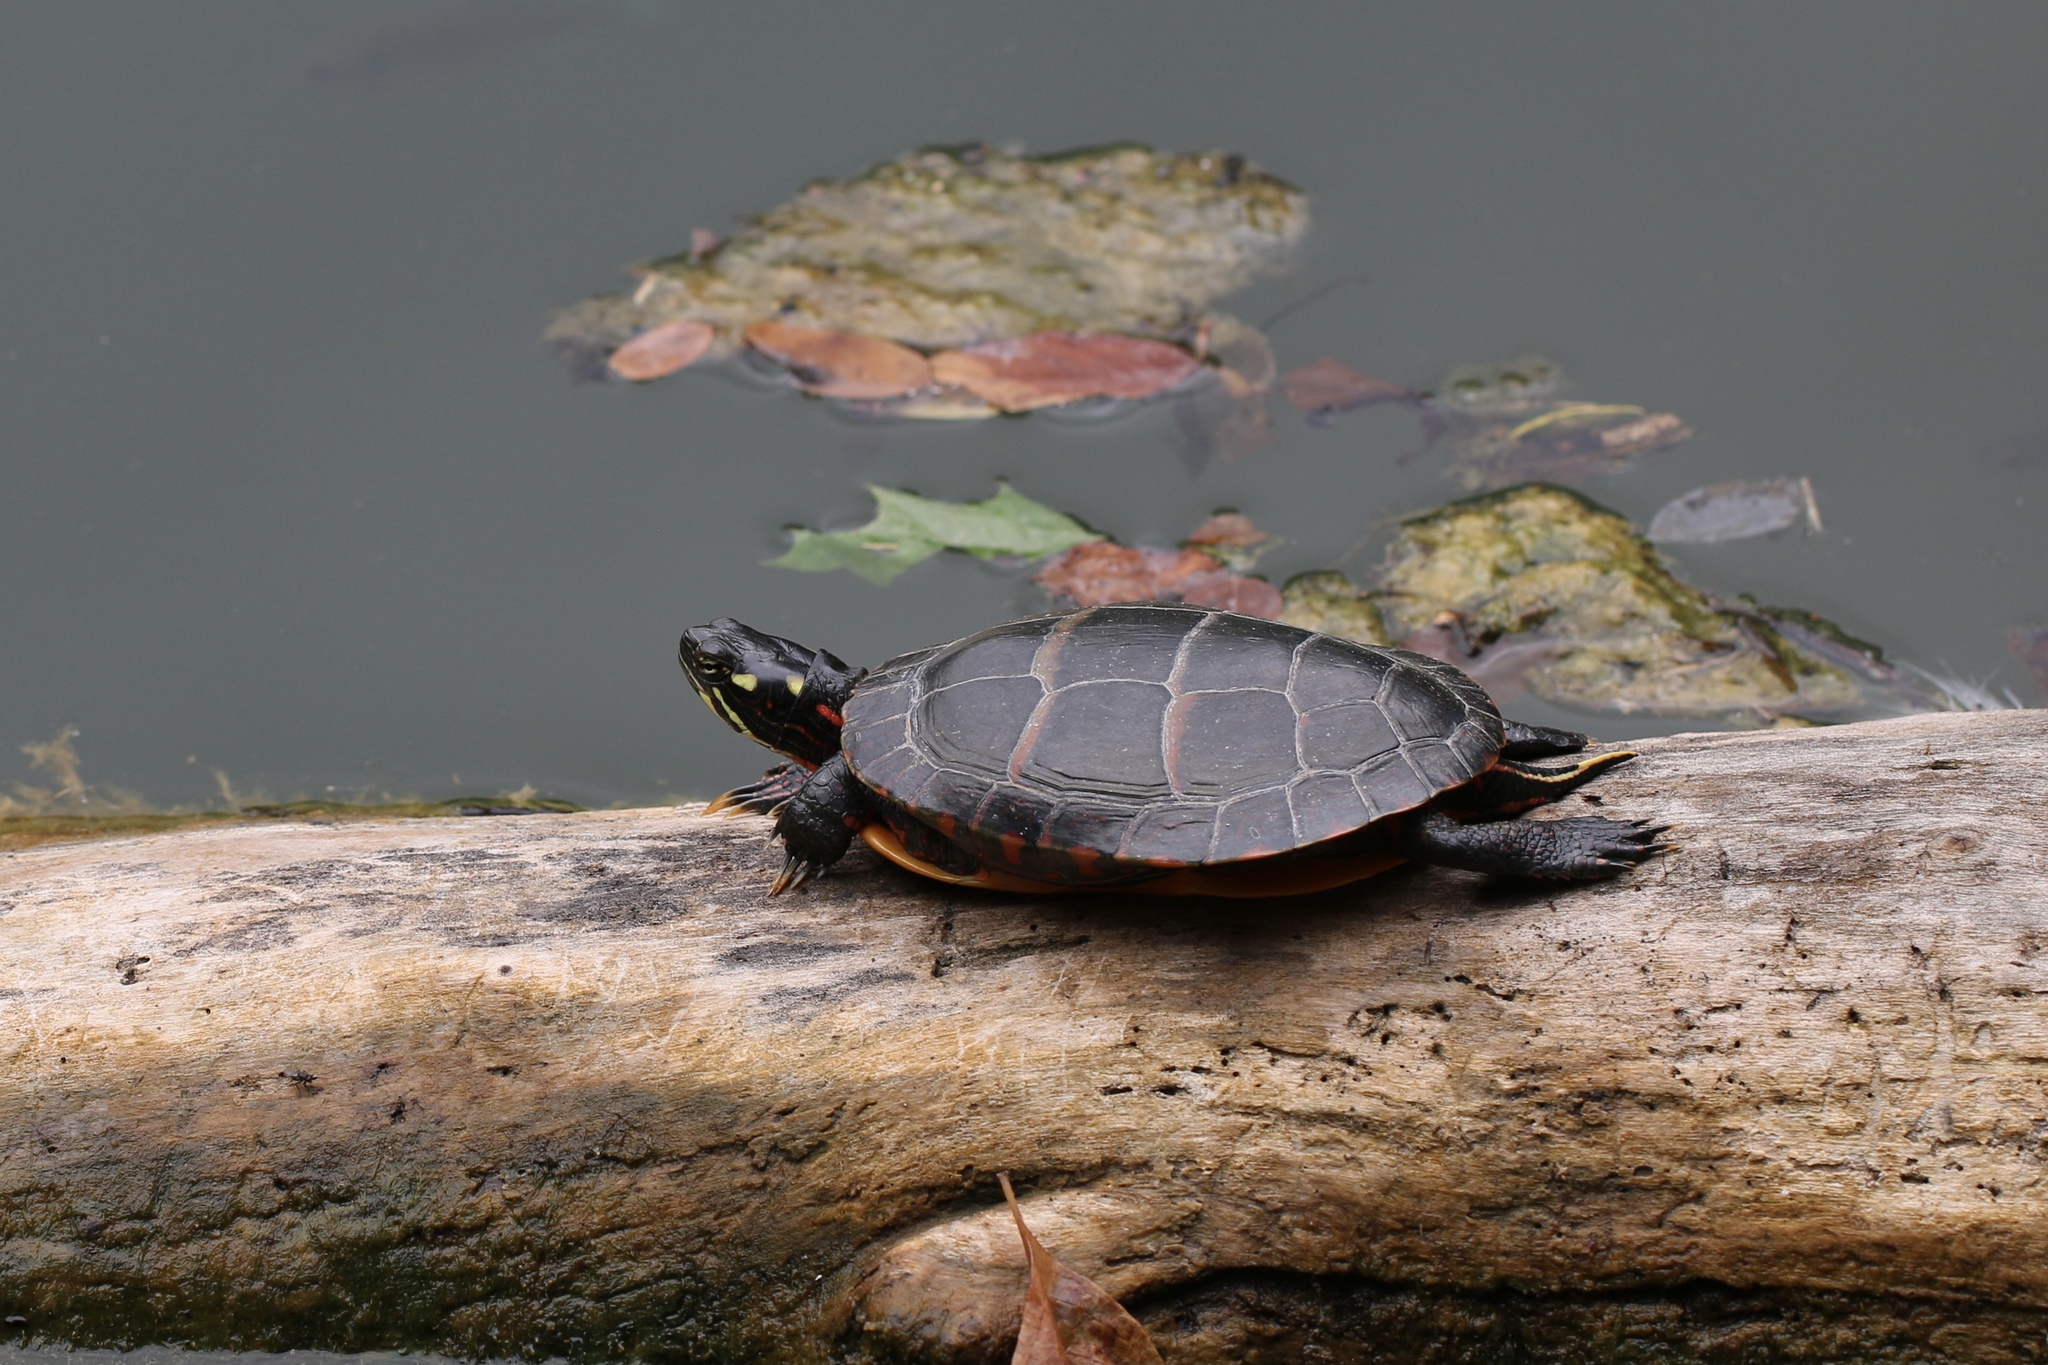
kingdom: Animalia
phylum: Chordata
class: Testudines
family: Emydidae
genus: Chrysemys
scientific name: Chrysemys picta
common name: Painted turtle
